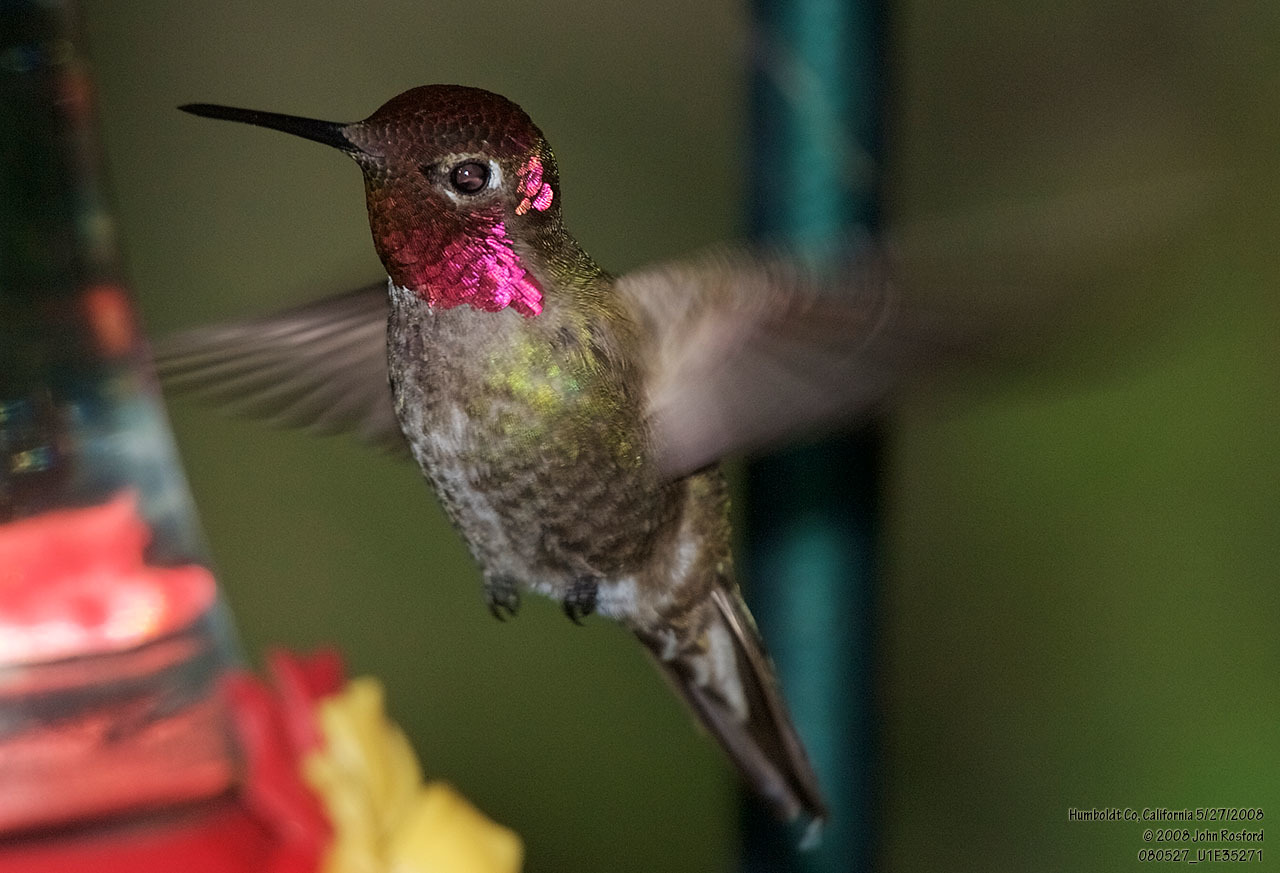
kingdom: Animalia
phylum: Chordata
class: Aves
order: Apodiformes
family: Trochilidae
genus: Calypte
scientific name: Calypte anna
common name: Anna's hummingbird
